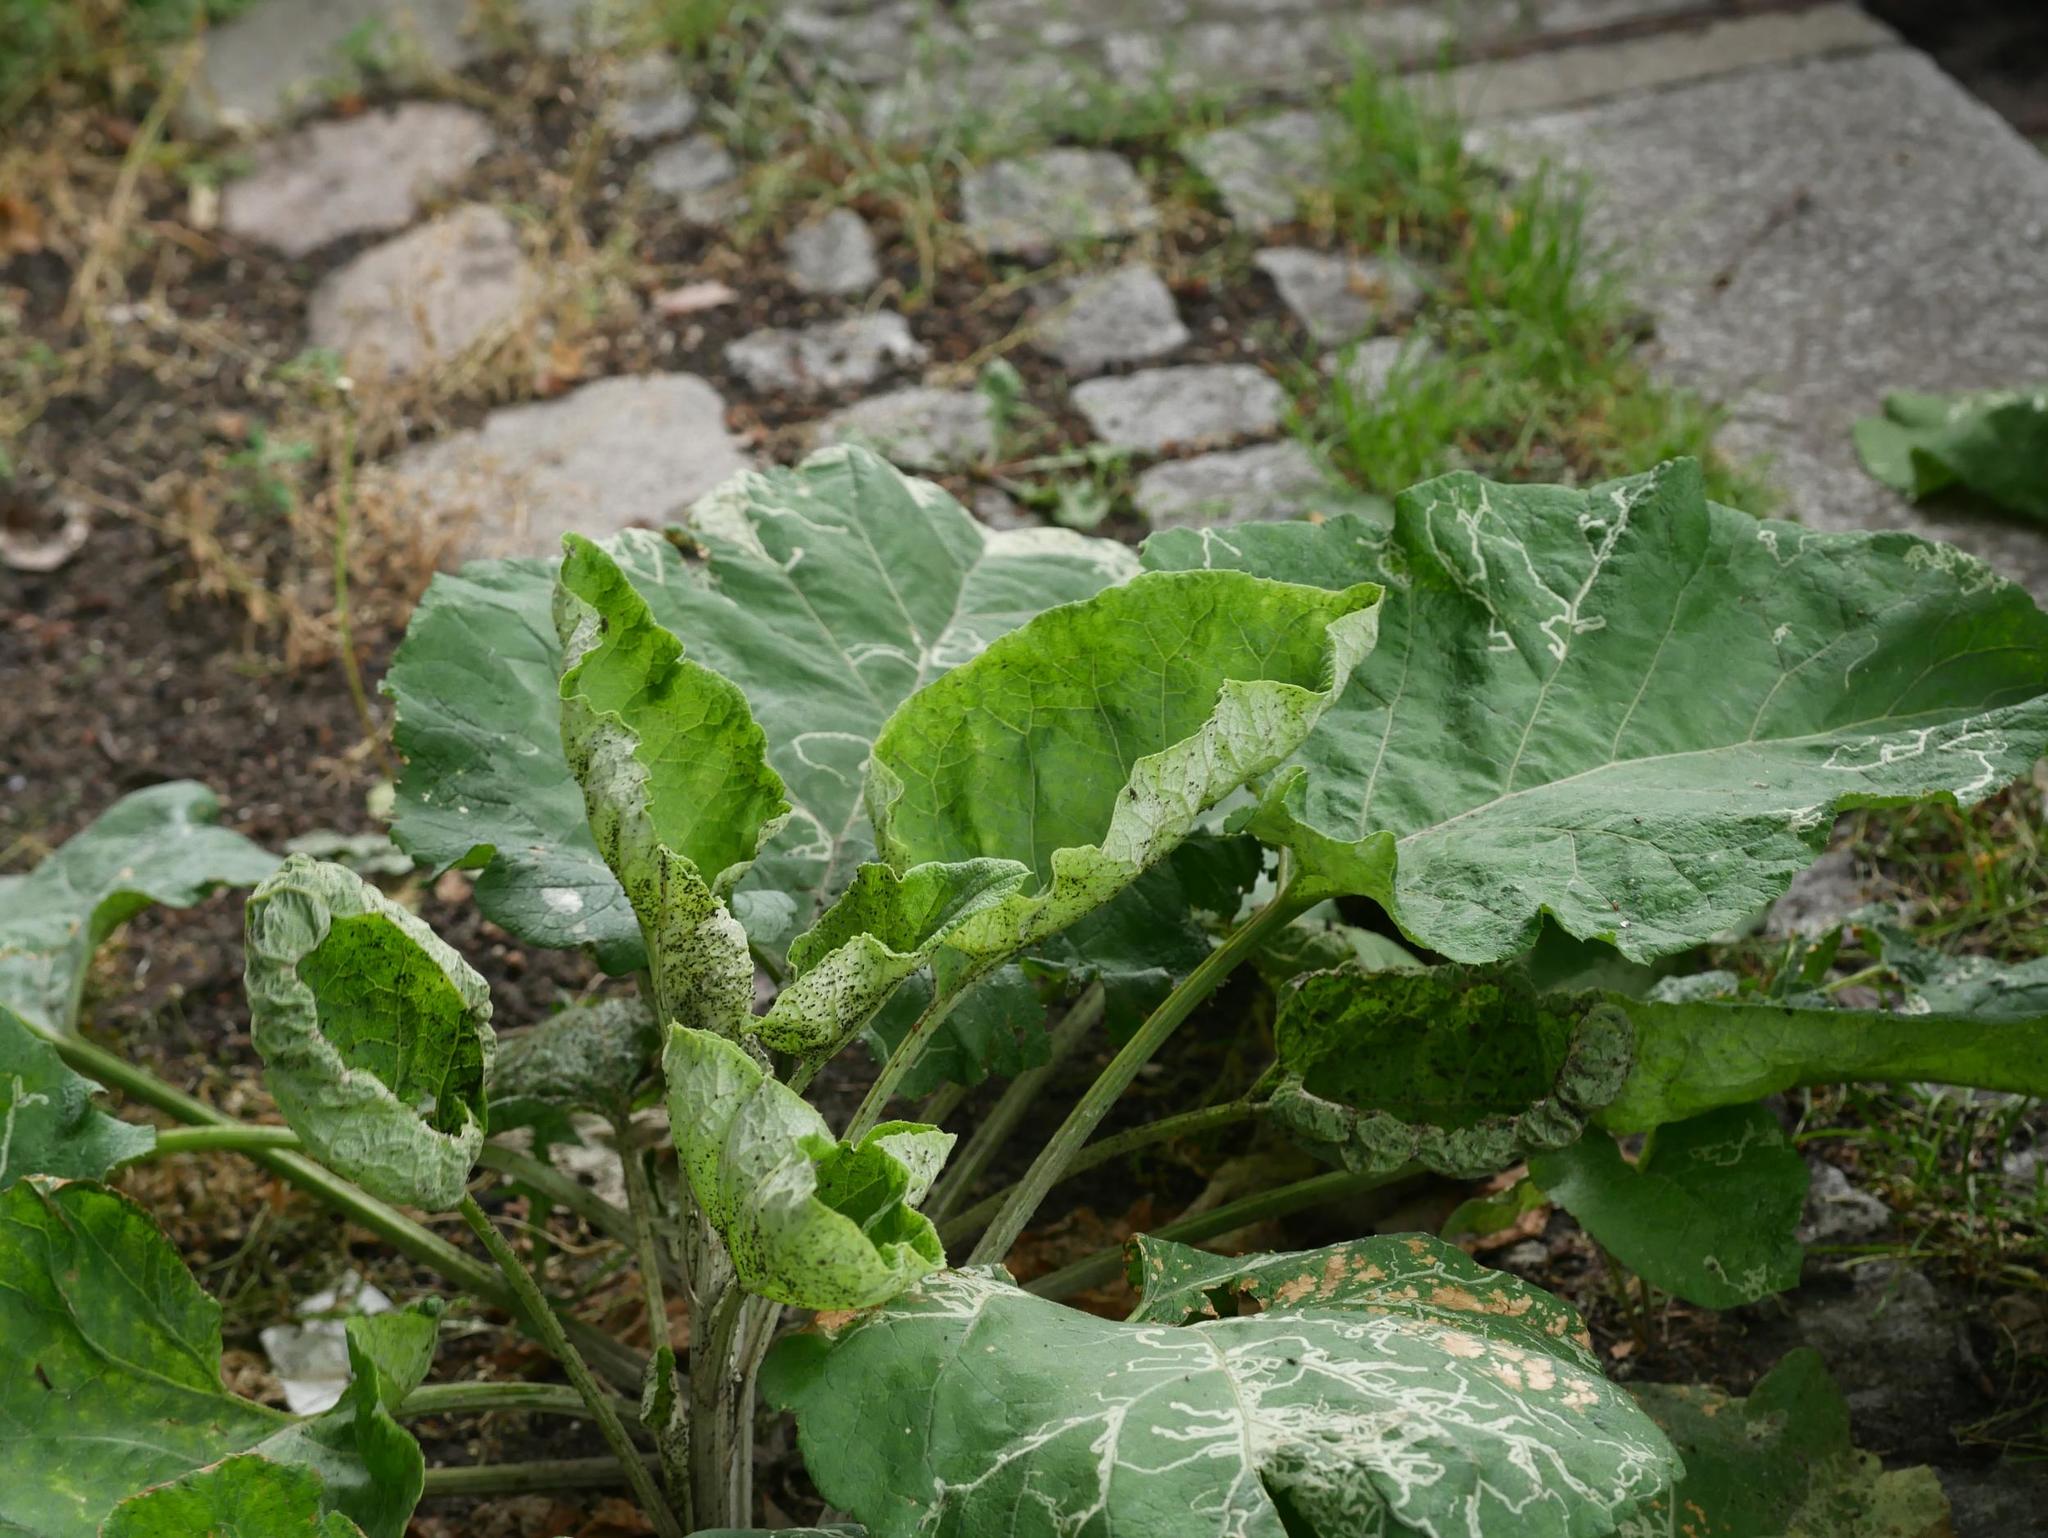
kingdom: Plantae
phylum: Tracheophyta
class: Magnoliopsida
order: Asterales
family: Asteraceae
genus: Arctium
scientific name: Arctium lappa
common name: Greater burdock
